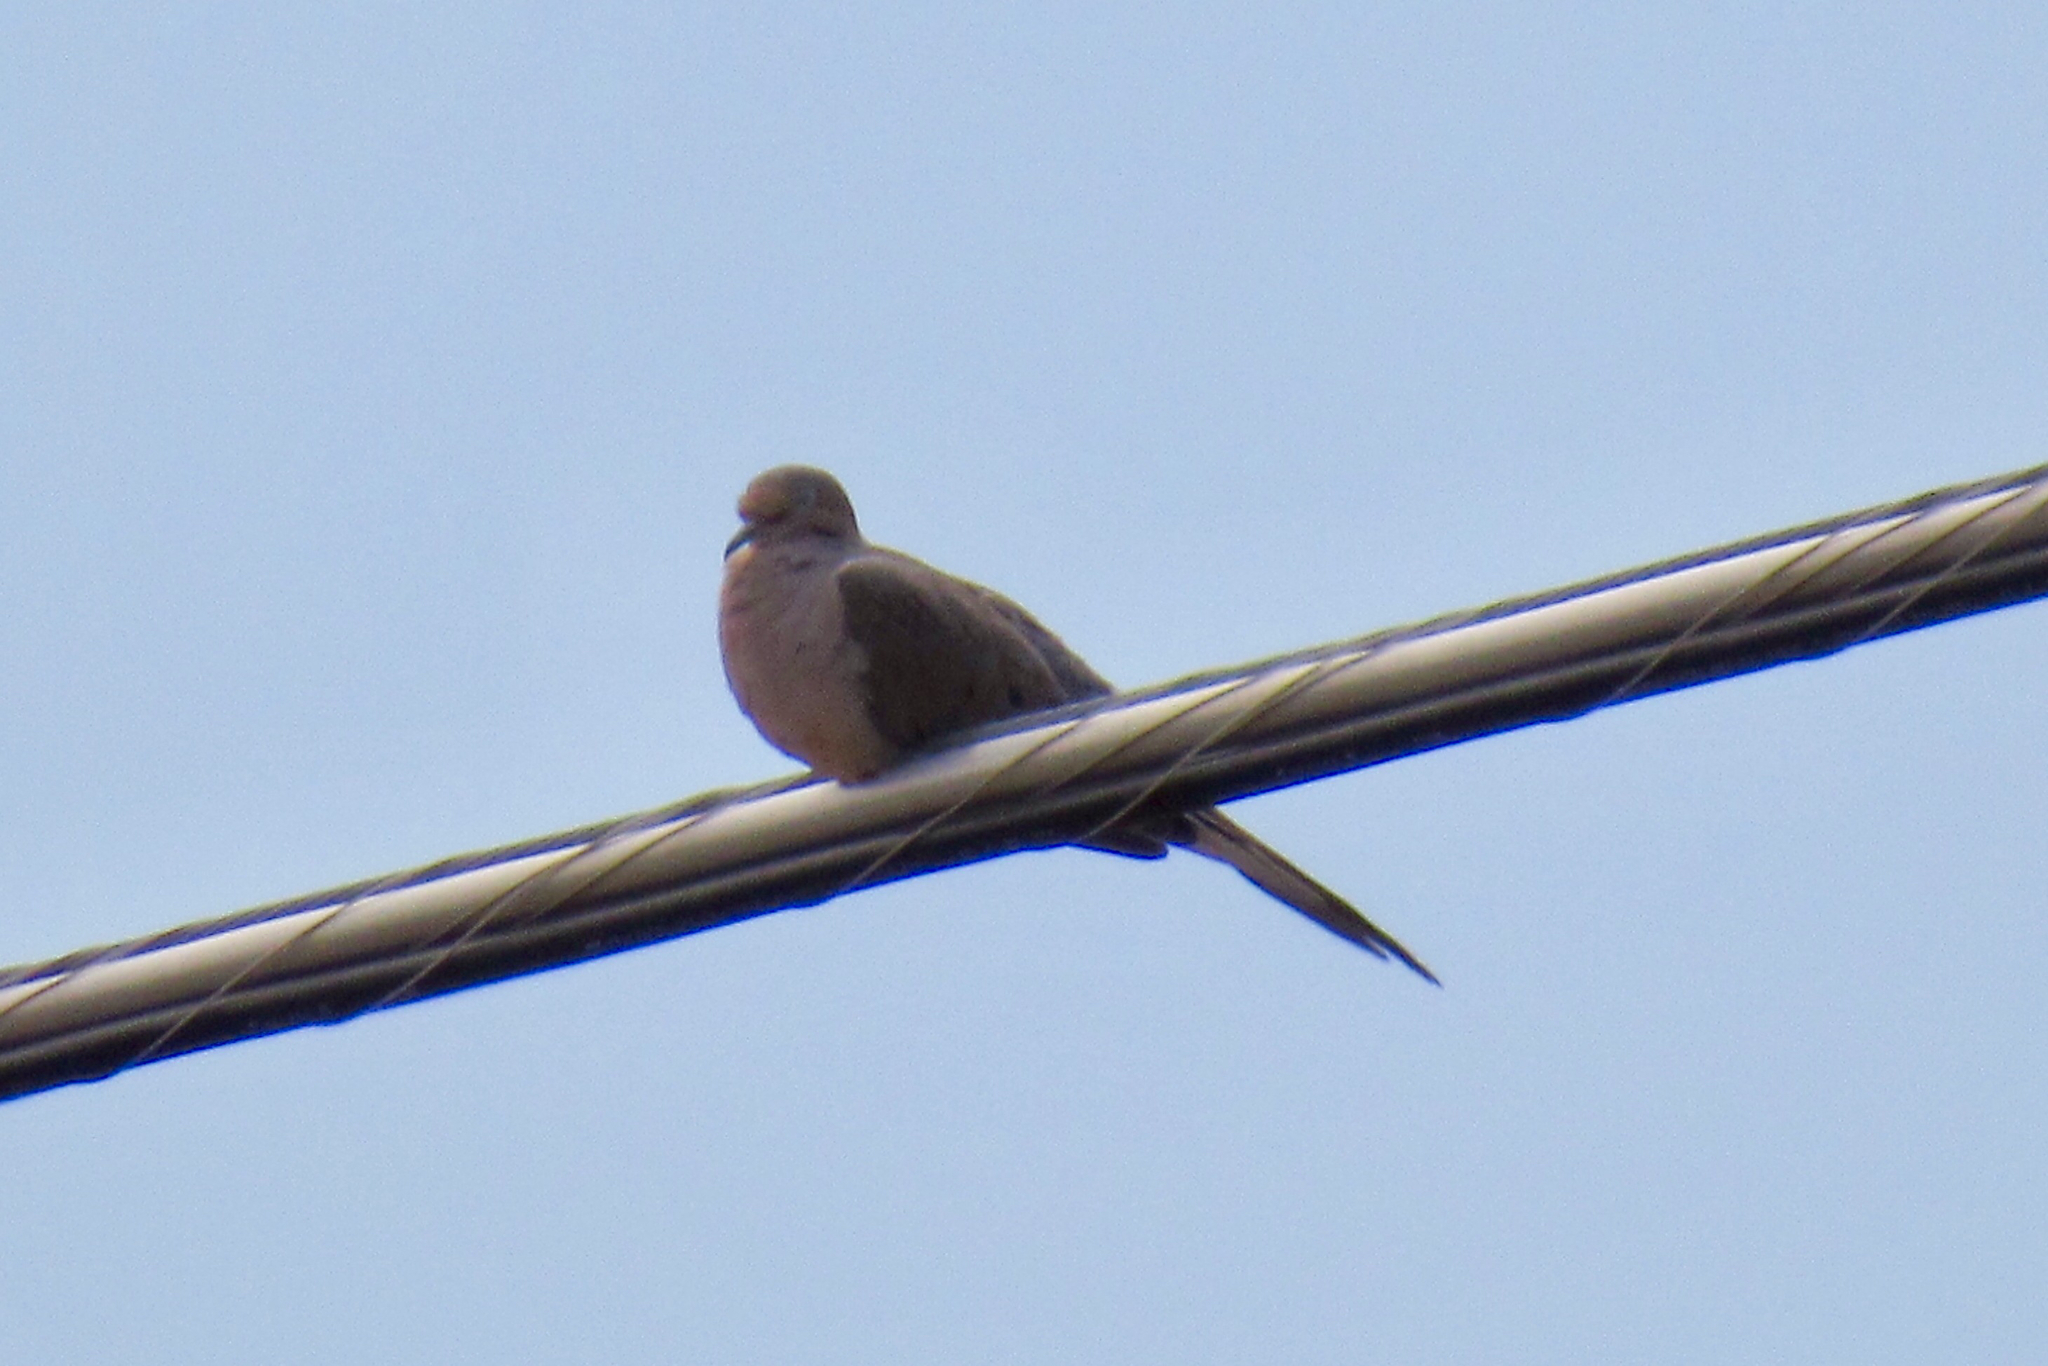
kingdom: Animalia
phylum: Chordata
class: Aves
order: Columbiformes
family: Columbidae
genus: Zenaida
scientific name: Zenaida macroura
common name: Mourning dove
